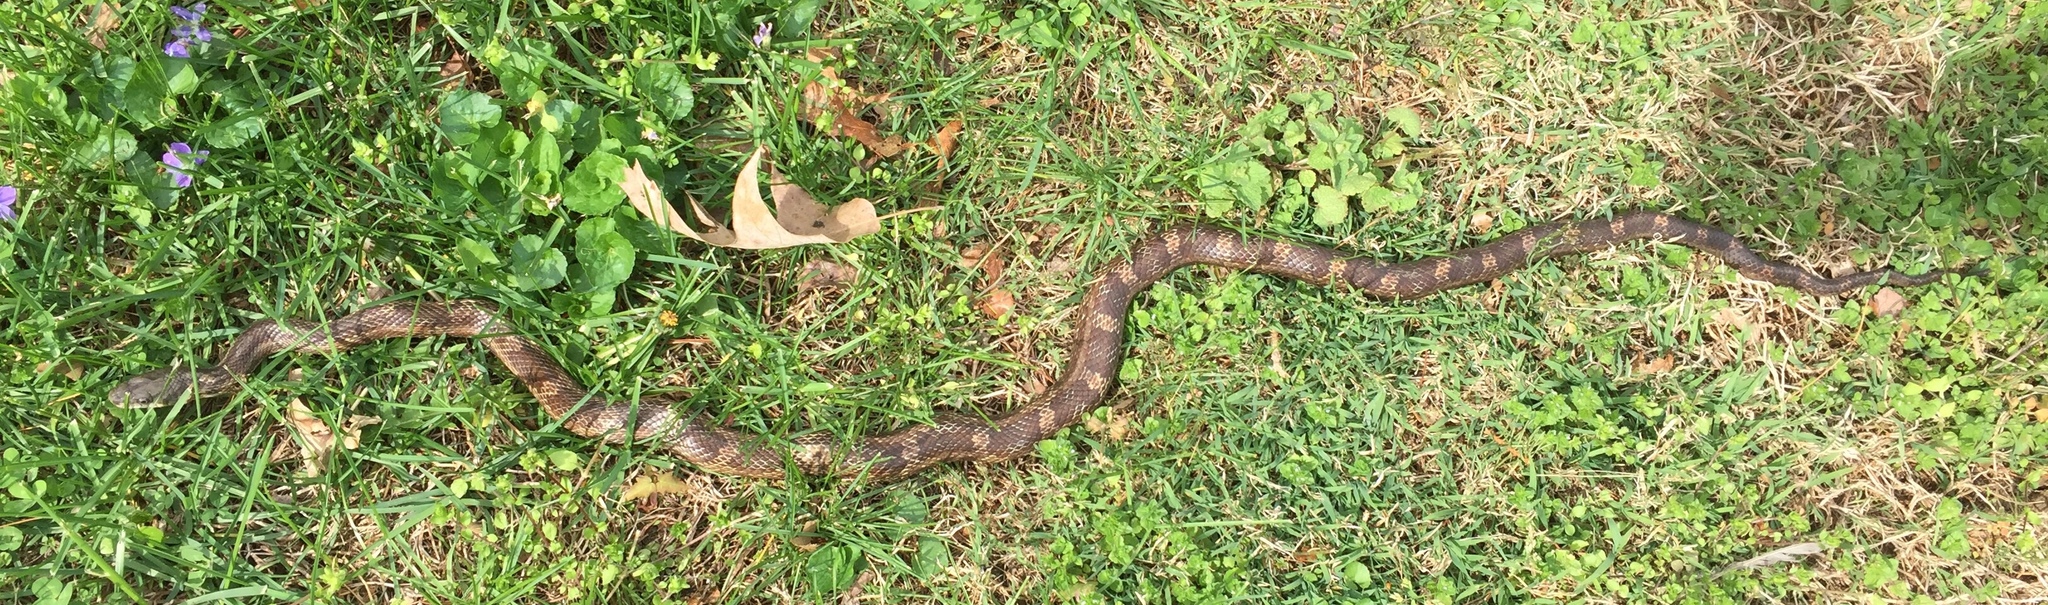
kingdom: Animalia
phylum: Chordata
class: Squamata
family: Colubridae
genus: Pantherophis
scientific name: Pantherophis spiloides
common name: Gray rat snake
